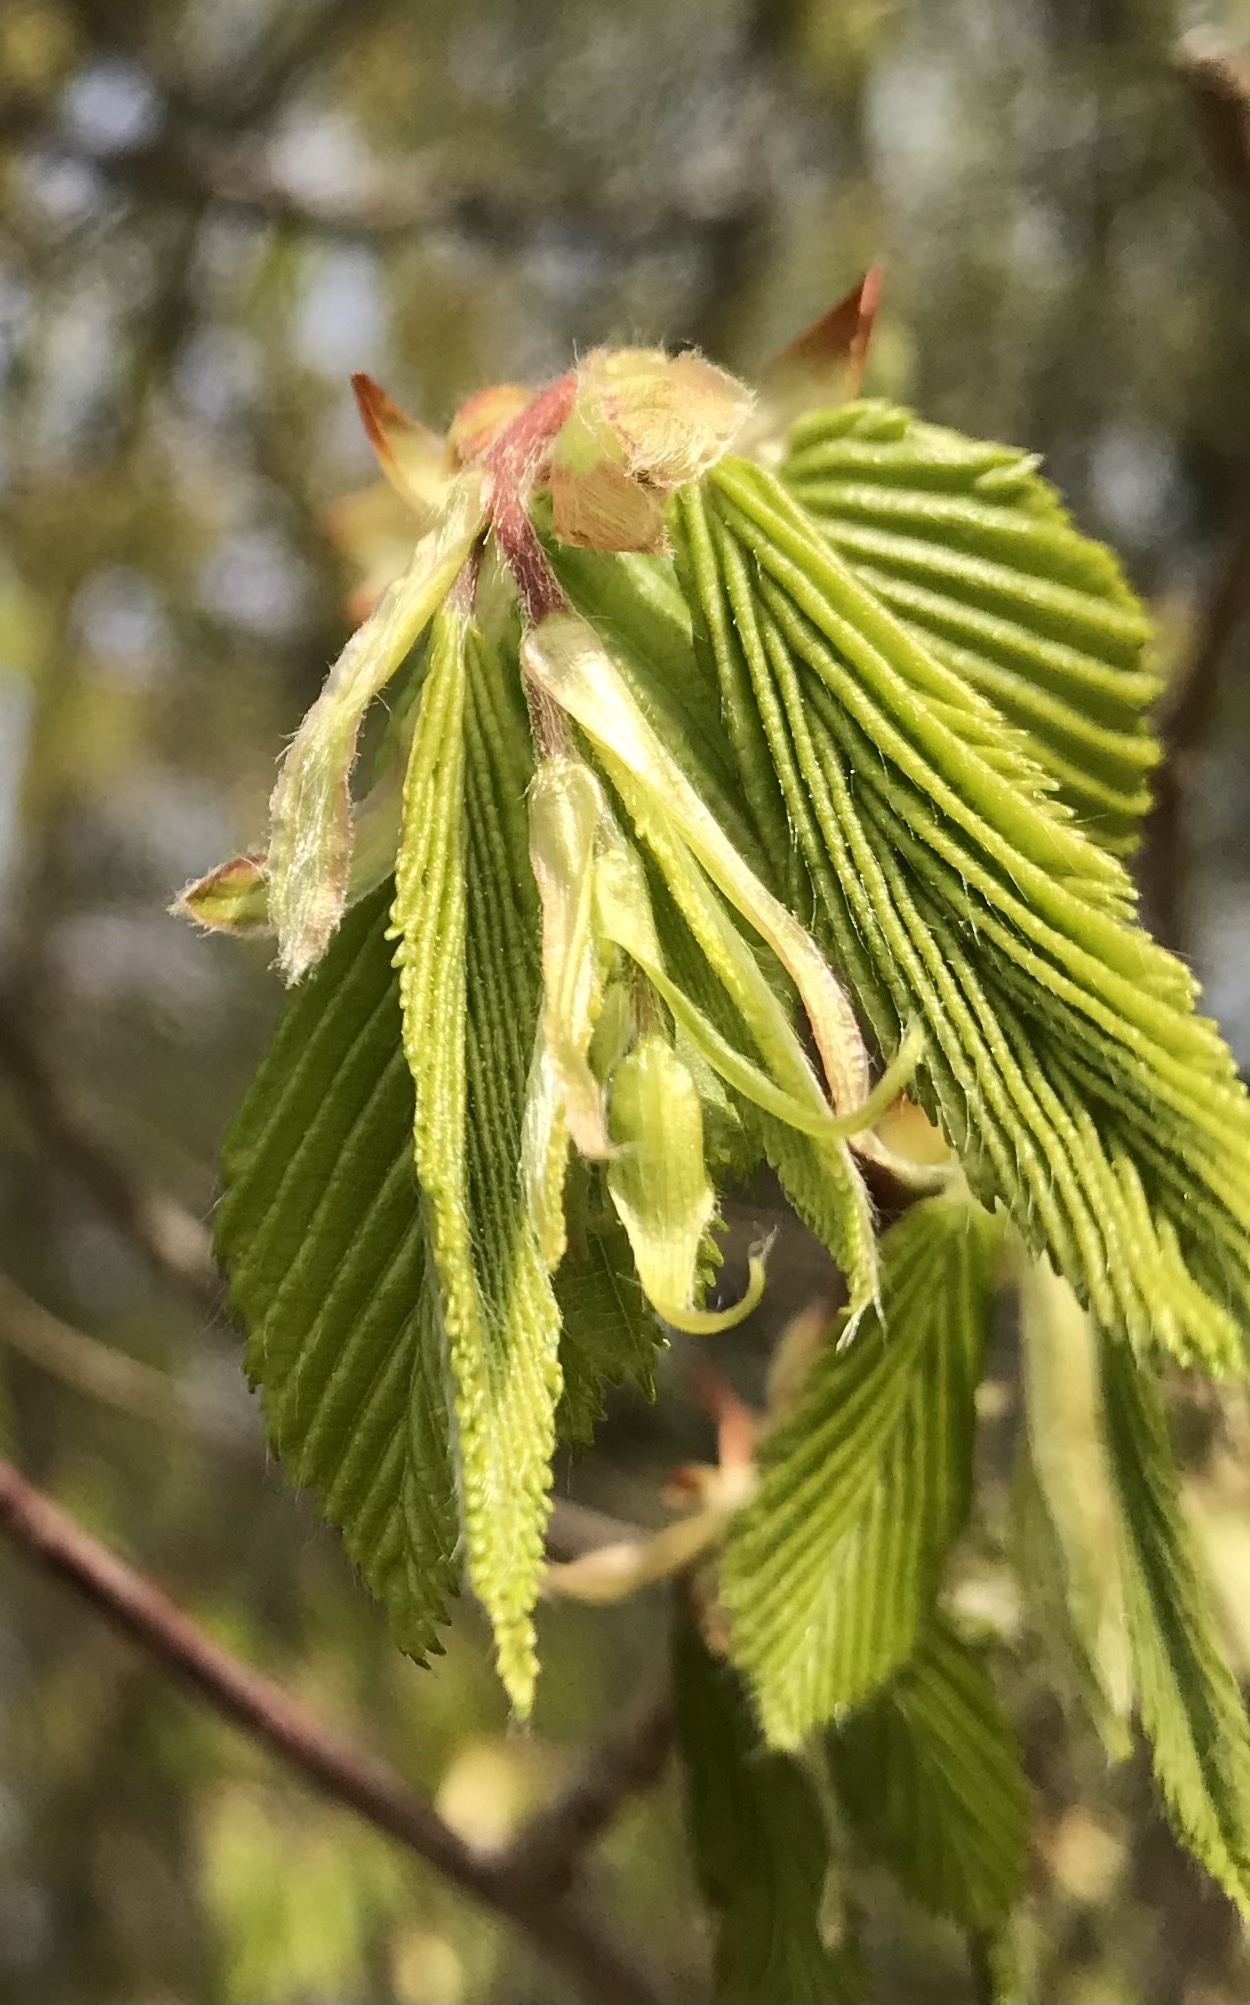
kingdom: Plantae
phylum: Tracheophyta
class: Magnoliopsida
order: Fagales
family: Betulaceae
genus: Carpinus
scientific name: Carpinus betulus
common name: Hornbeam
